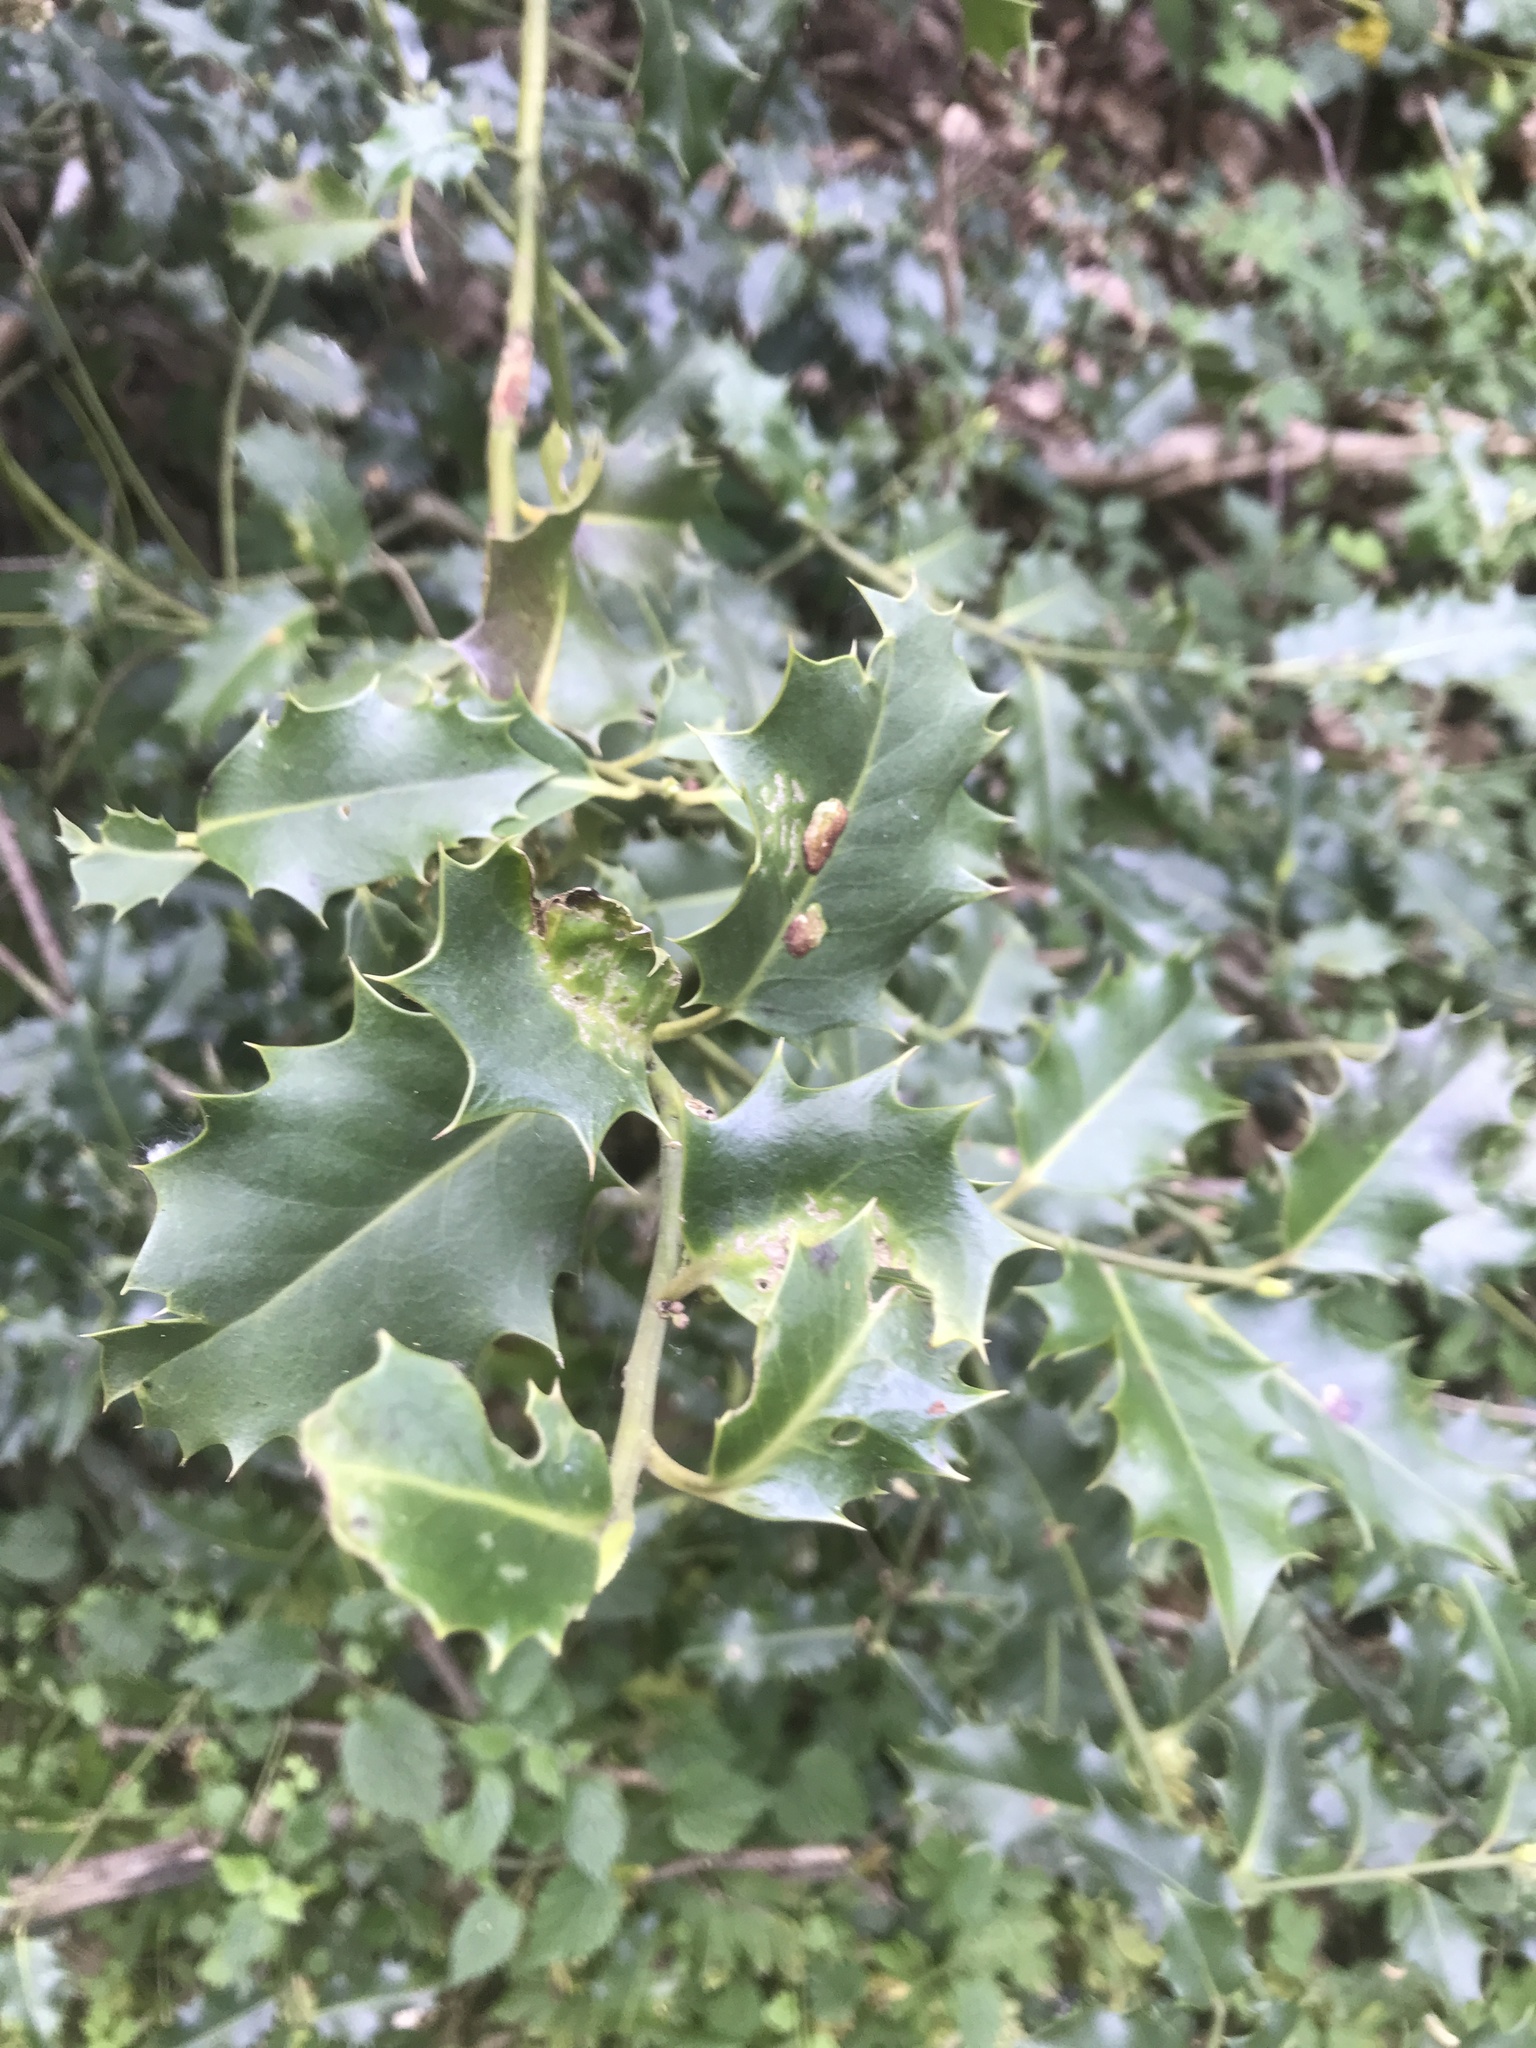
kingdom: Plantae
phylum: Tracheophyta
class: Magnoliopsida
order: Aquifoliales
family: Aquifoliaceae
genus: Ilex
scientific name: Ilex aquifolium
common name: English holly
